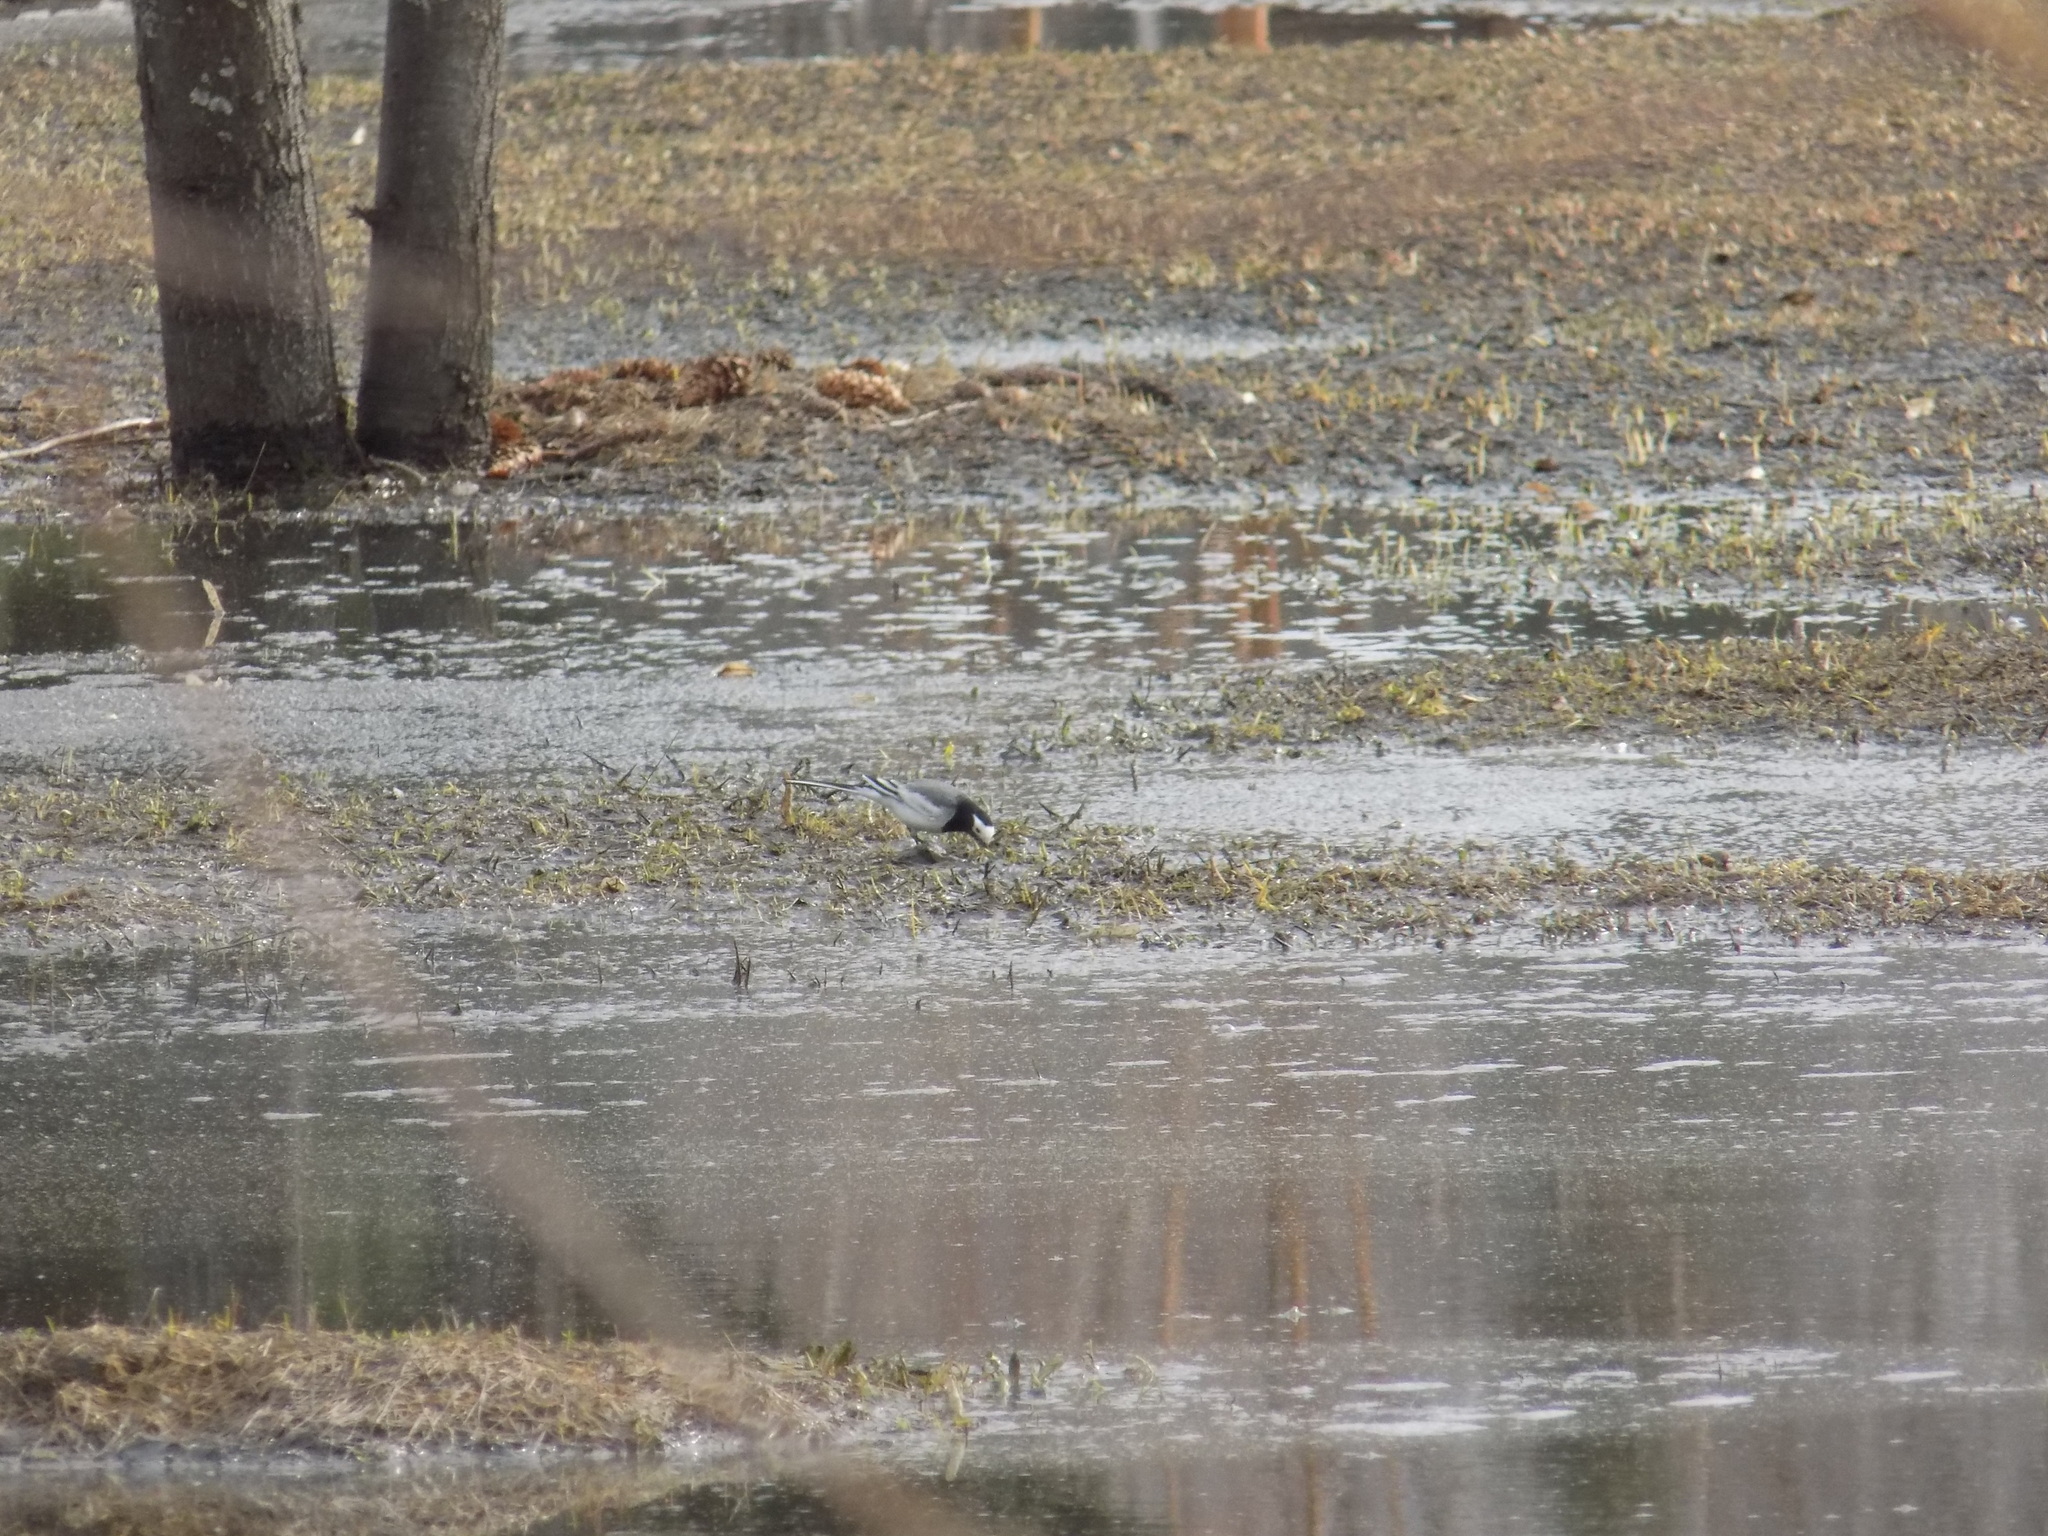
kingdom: Animalia
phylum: Chordata
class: Aves
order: Passeriformes
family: Motacillidae
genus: Motacilla
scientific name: Motacilla alba
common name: White wagtail
